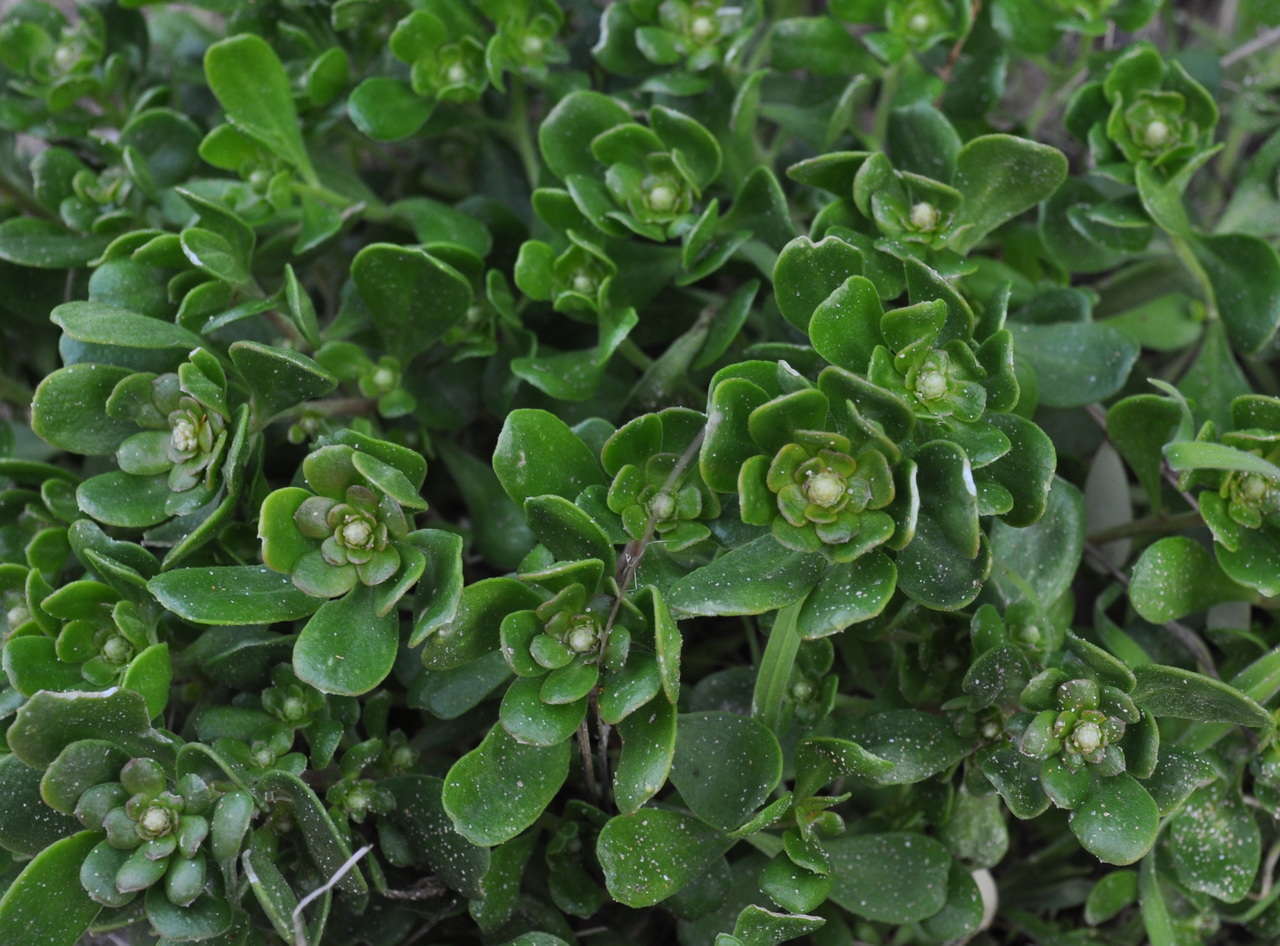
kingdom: Plantae
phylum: Tracheophyta
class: Magnoliopsida
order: Celastrales
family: Celastraceae
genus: Stackhousia
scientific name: Stackhousia spathulata
